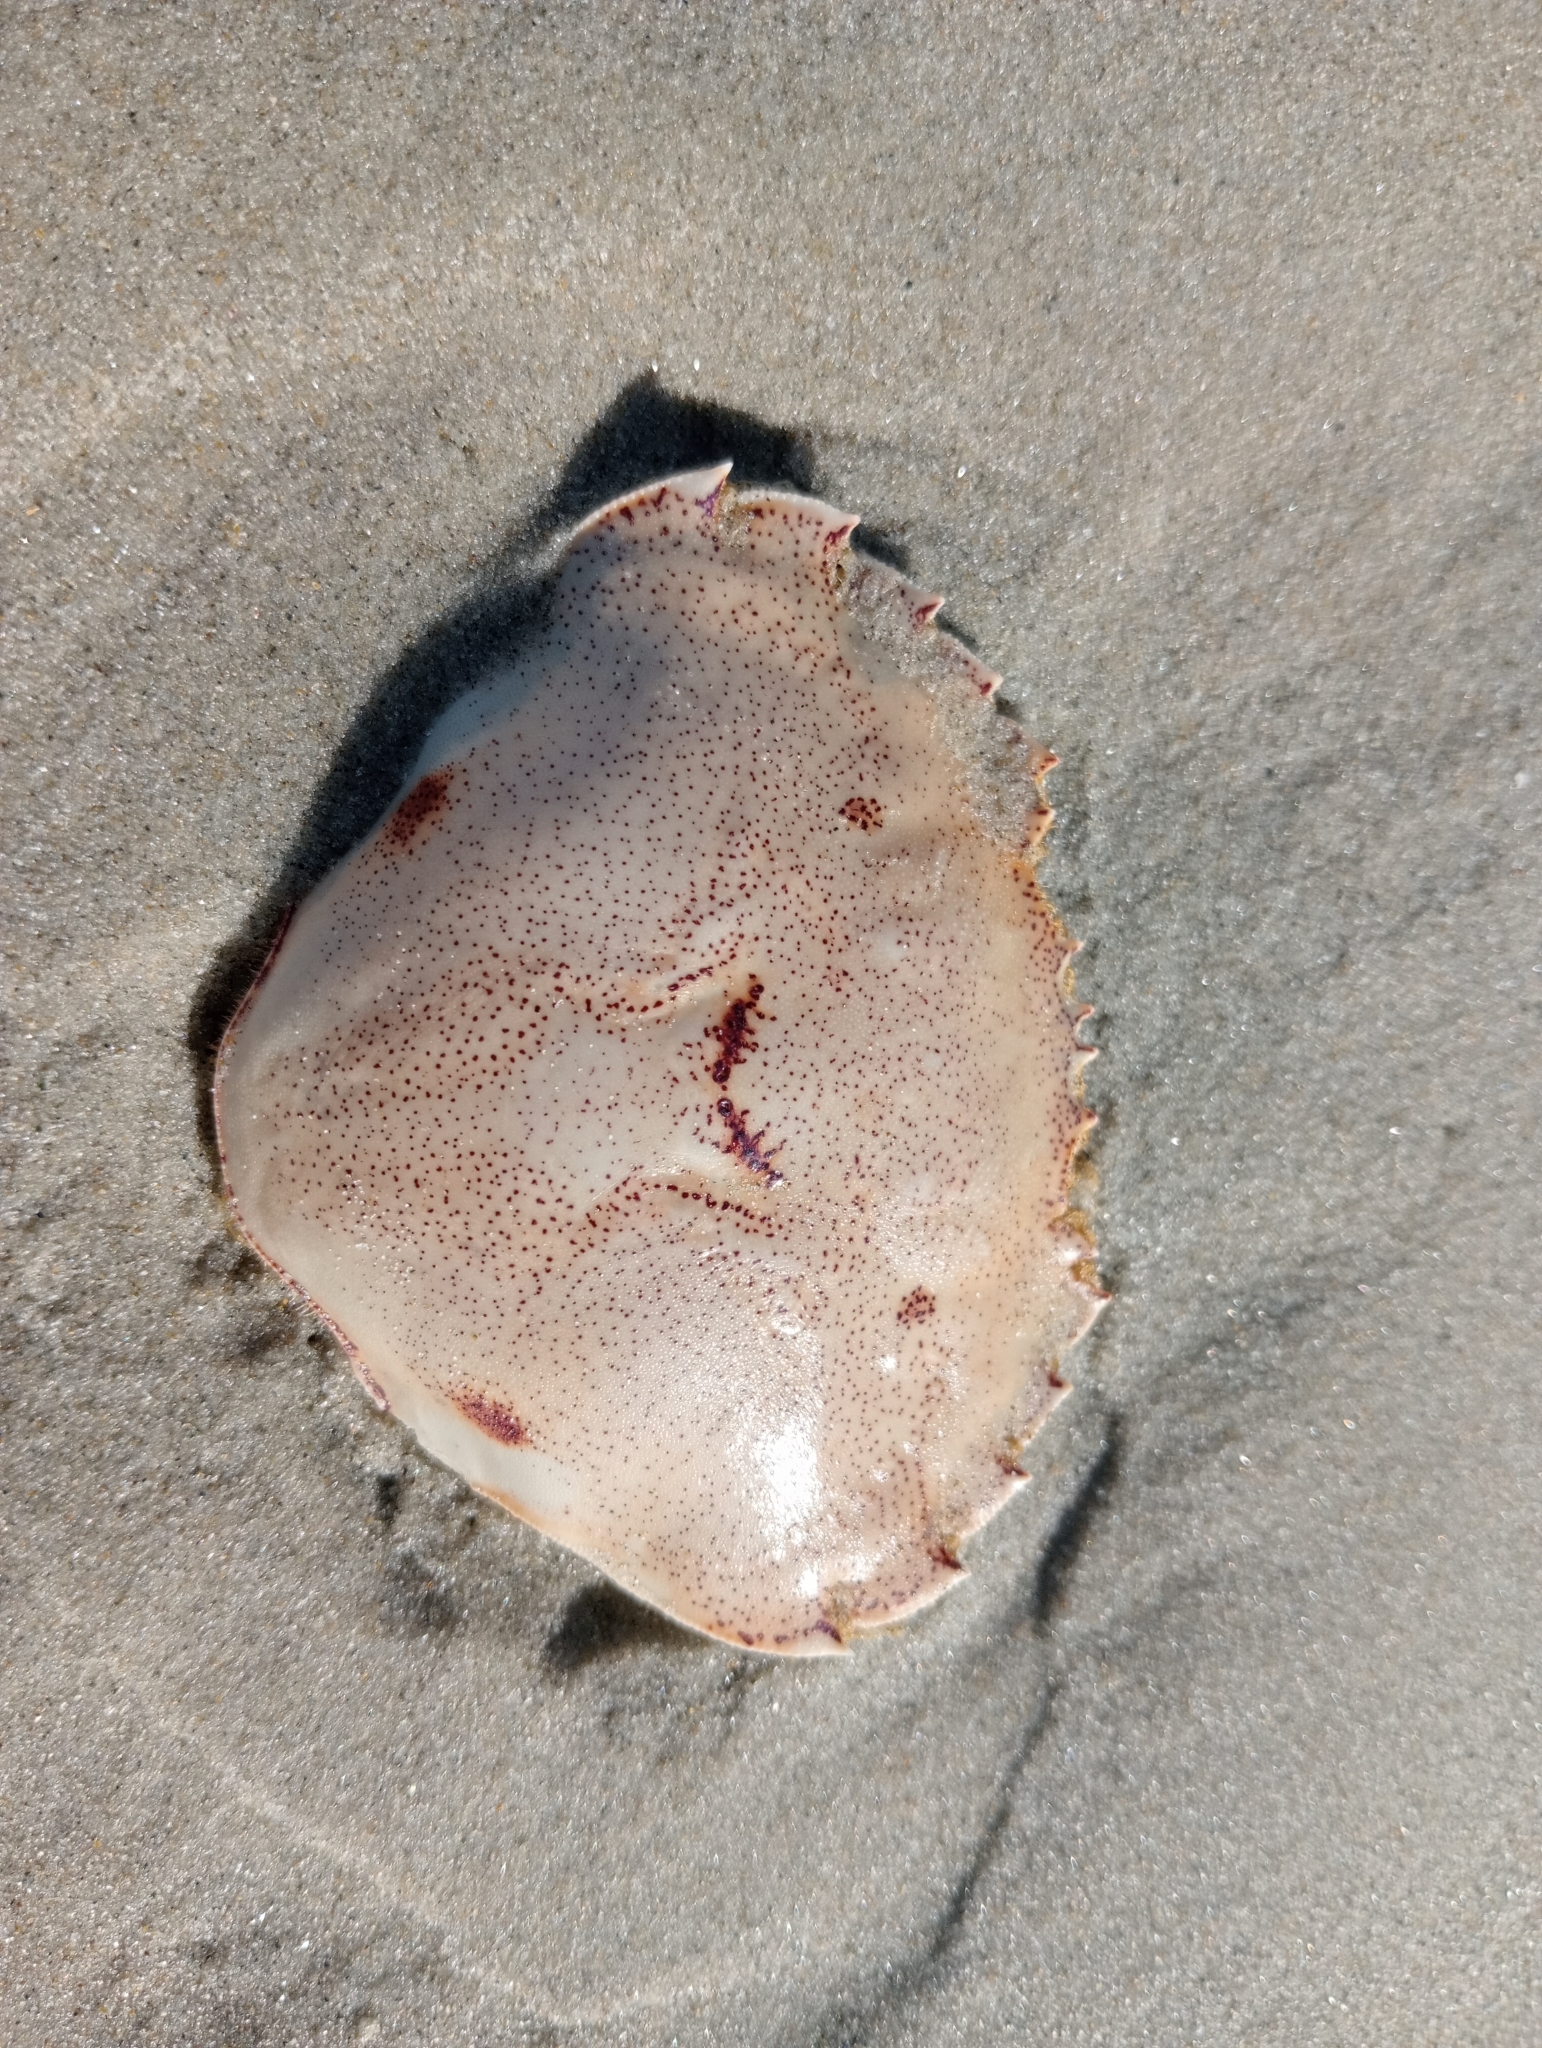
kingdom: Animalia
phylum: Arthropoda
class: Malacostraca
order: Decapoda
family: Ovalipidae
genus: Ovalipes
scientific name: Ovalipes catharus
